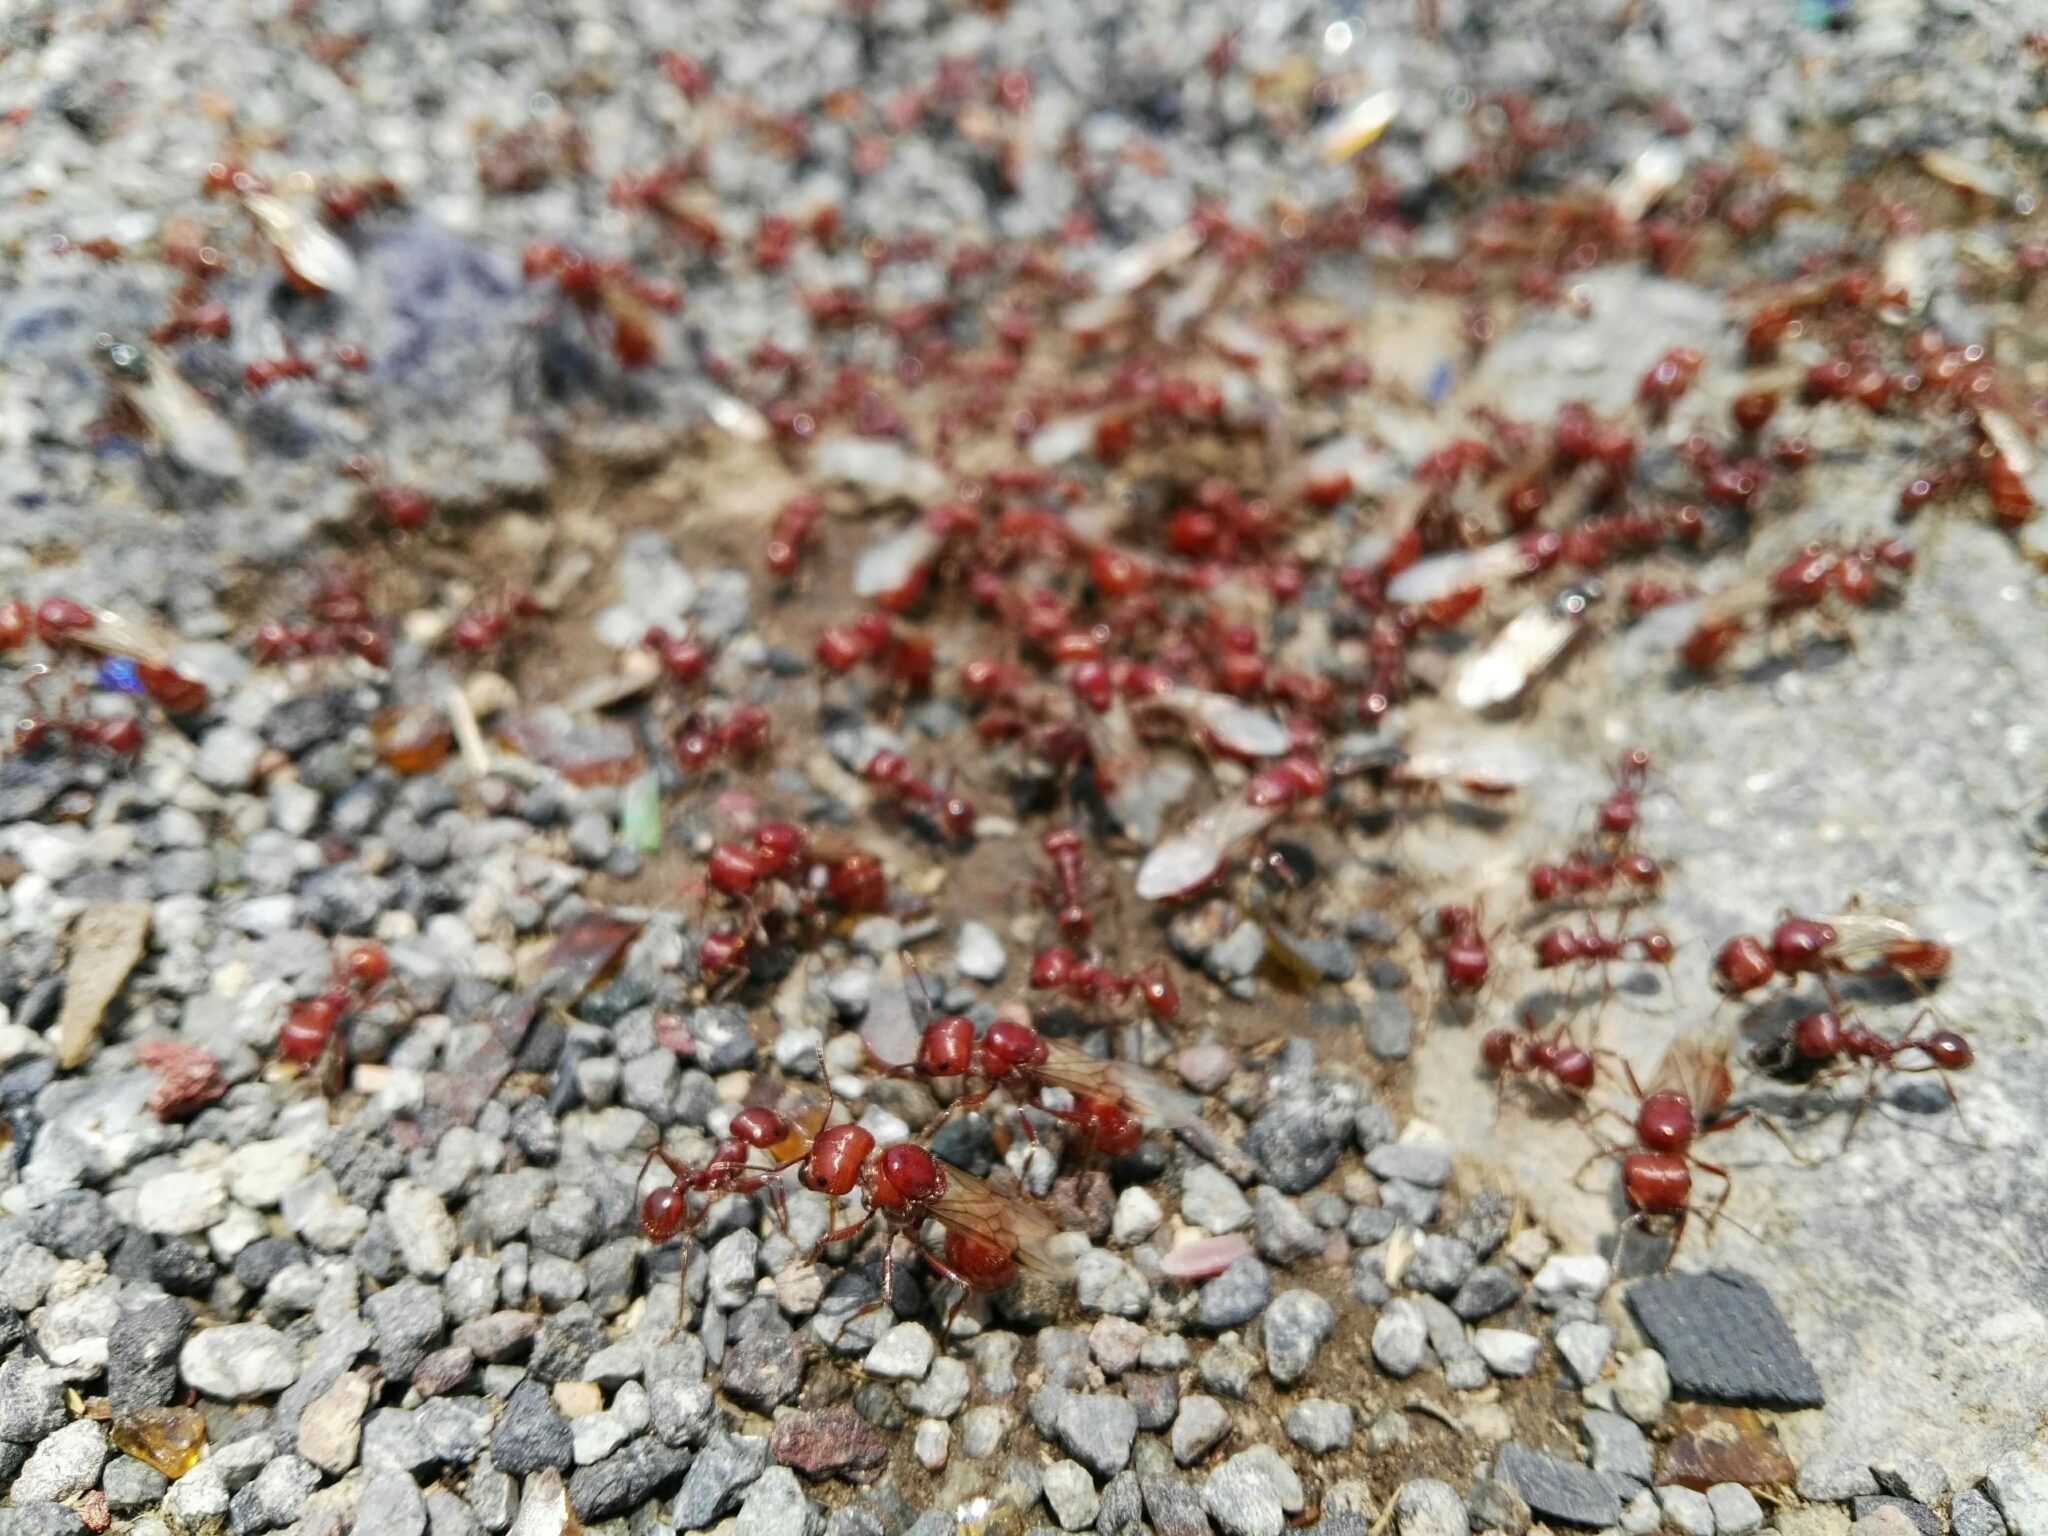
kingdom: Animalia
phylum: Arthropoda
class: Insecta
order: Hymenoptera
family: Formicidae
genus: Pogonomyrmex
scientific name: Pogonomyrmex barbatus
